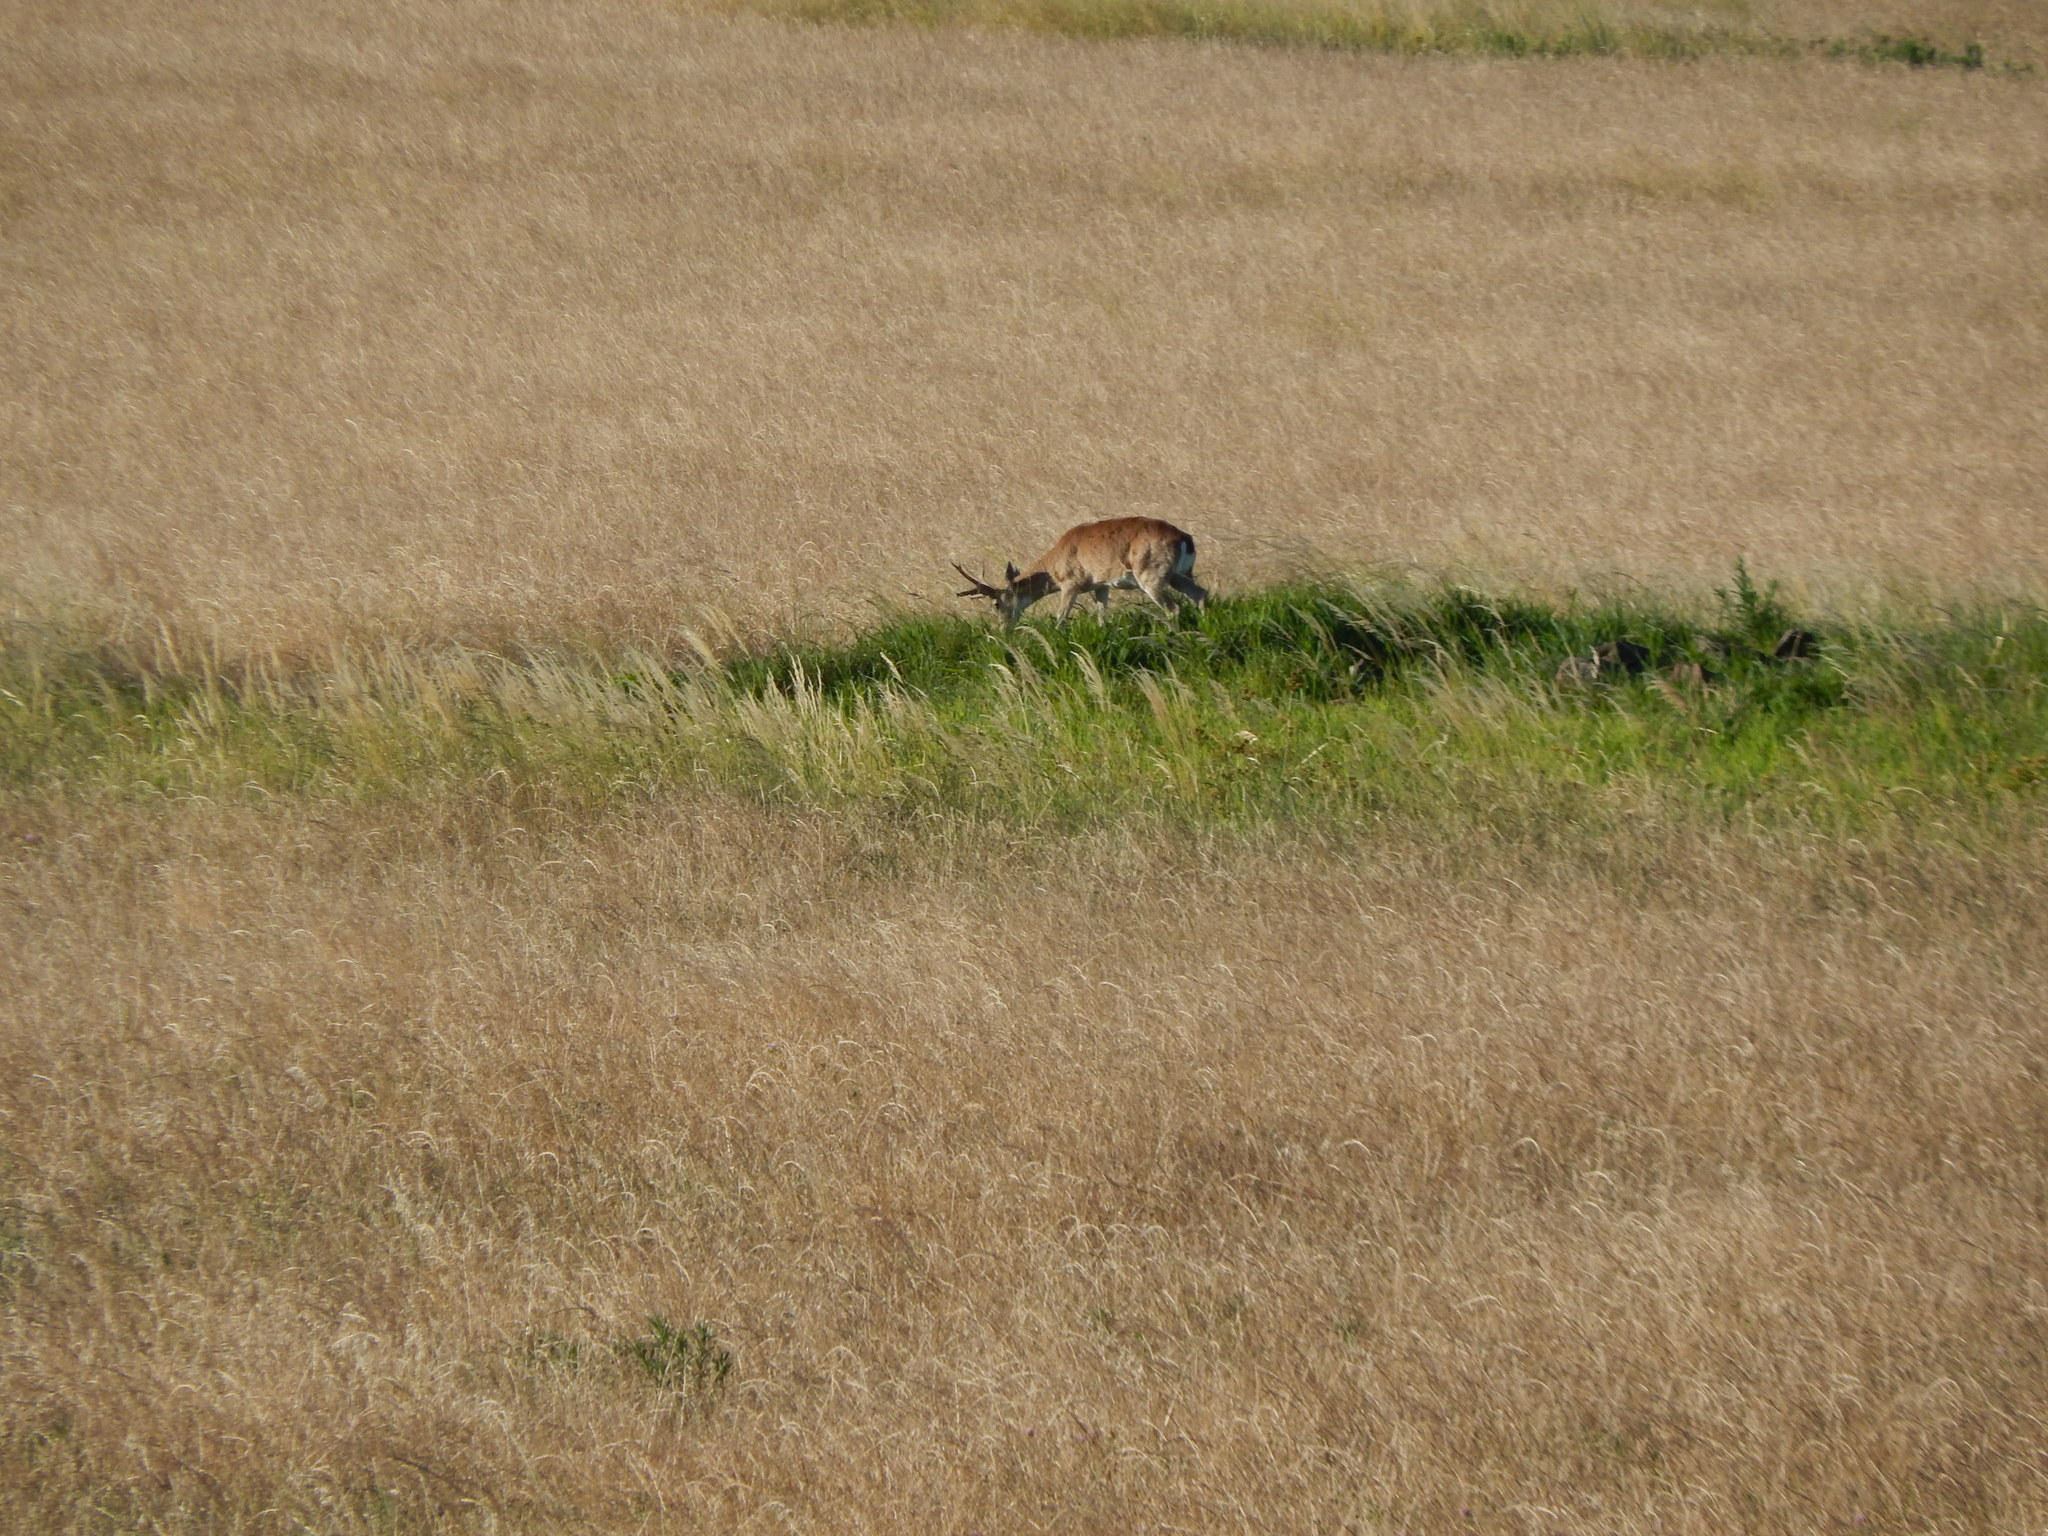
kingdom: Animalia
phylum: Chordata
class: Mammalia
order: Artiodactyla
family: Cervidae
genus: Ozotoceros
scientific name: Ozotoceros bezoarticus
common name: Pampas deer
